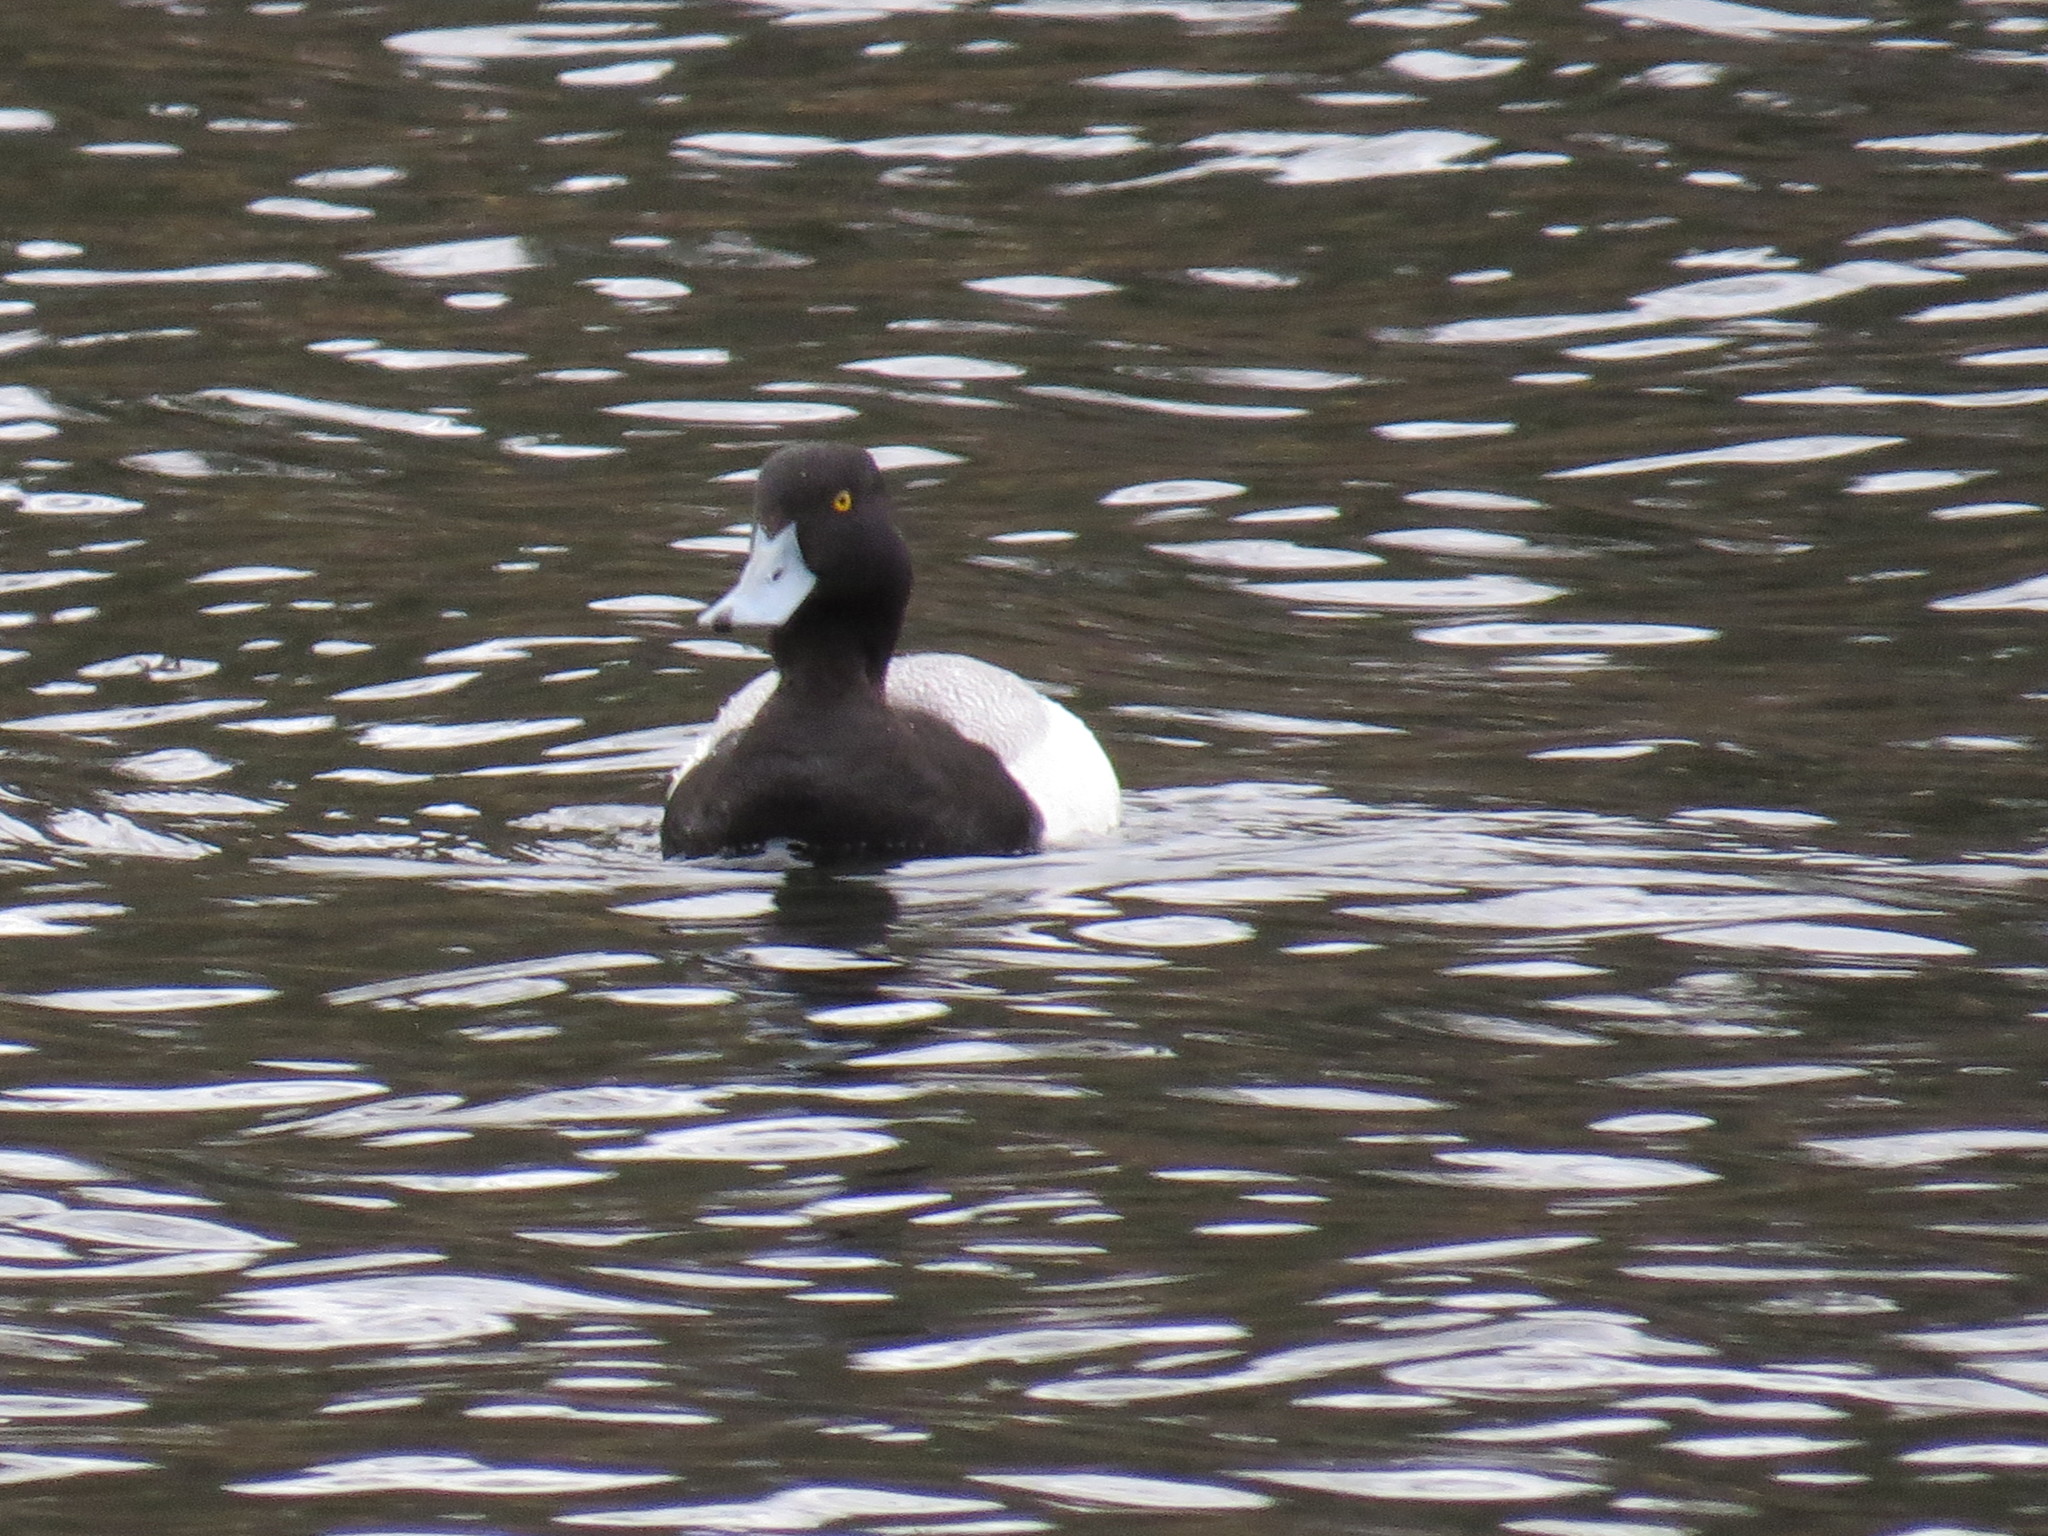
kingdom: Animalia
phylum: Chordata
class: Aves
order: Anseriformes
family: Anatidae
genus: Aythya
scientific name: Aythya affinis
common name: Lesser scaup
